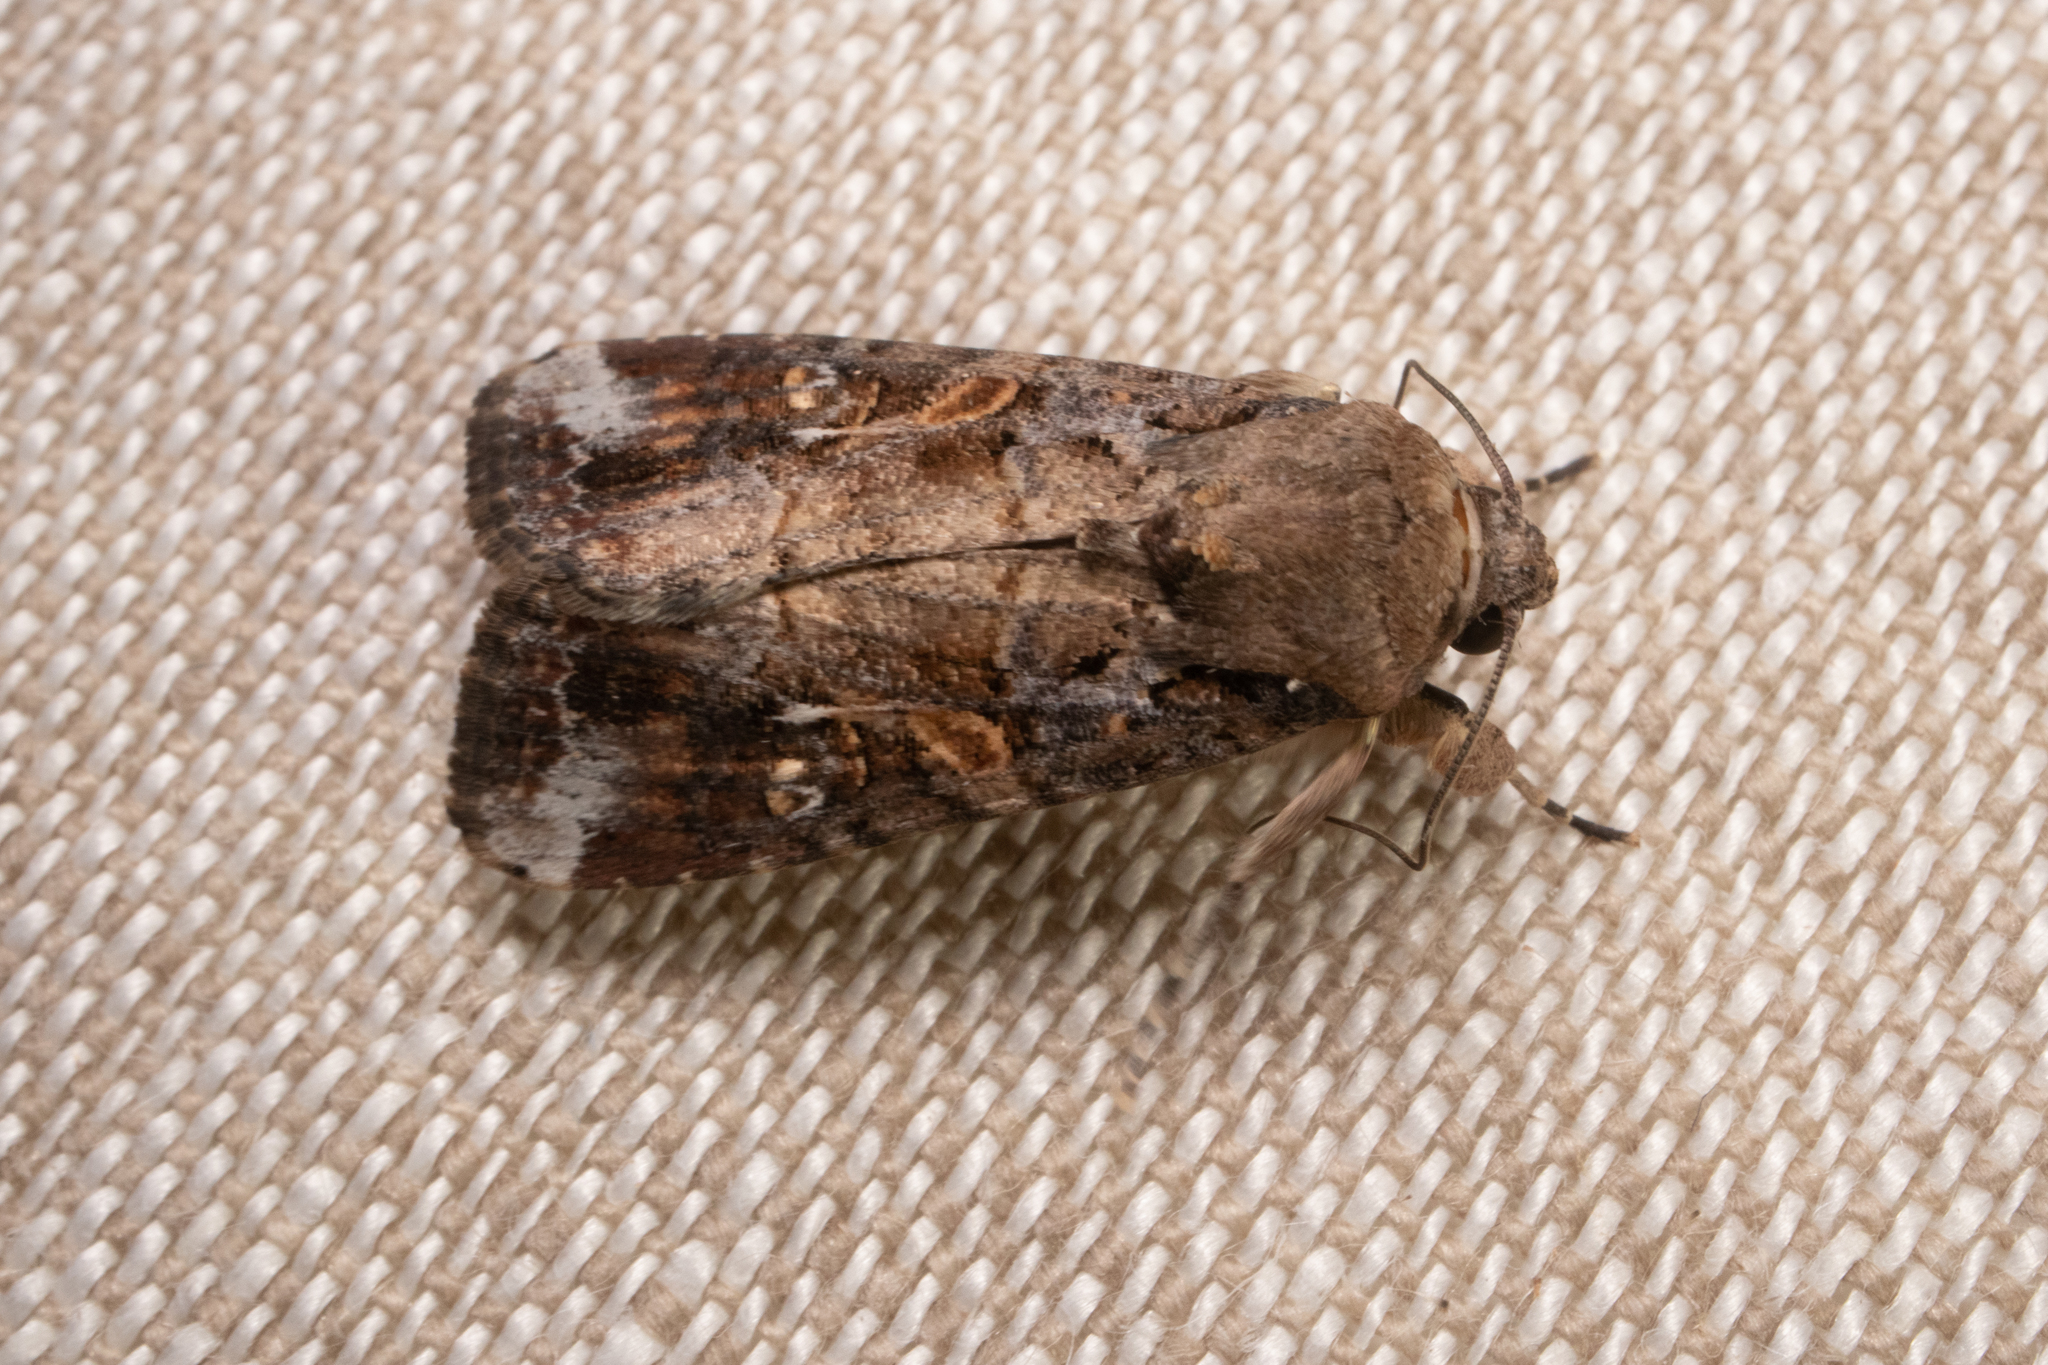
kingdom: Animalia
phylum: Arthropoda
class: Insecta
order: Lepidoptera
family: Noctuidae
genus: Spodoptera
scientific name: Spodoptera frugiperda
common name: Fall armyworm
